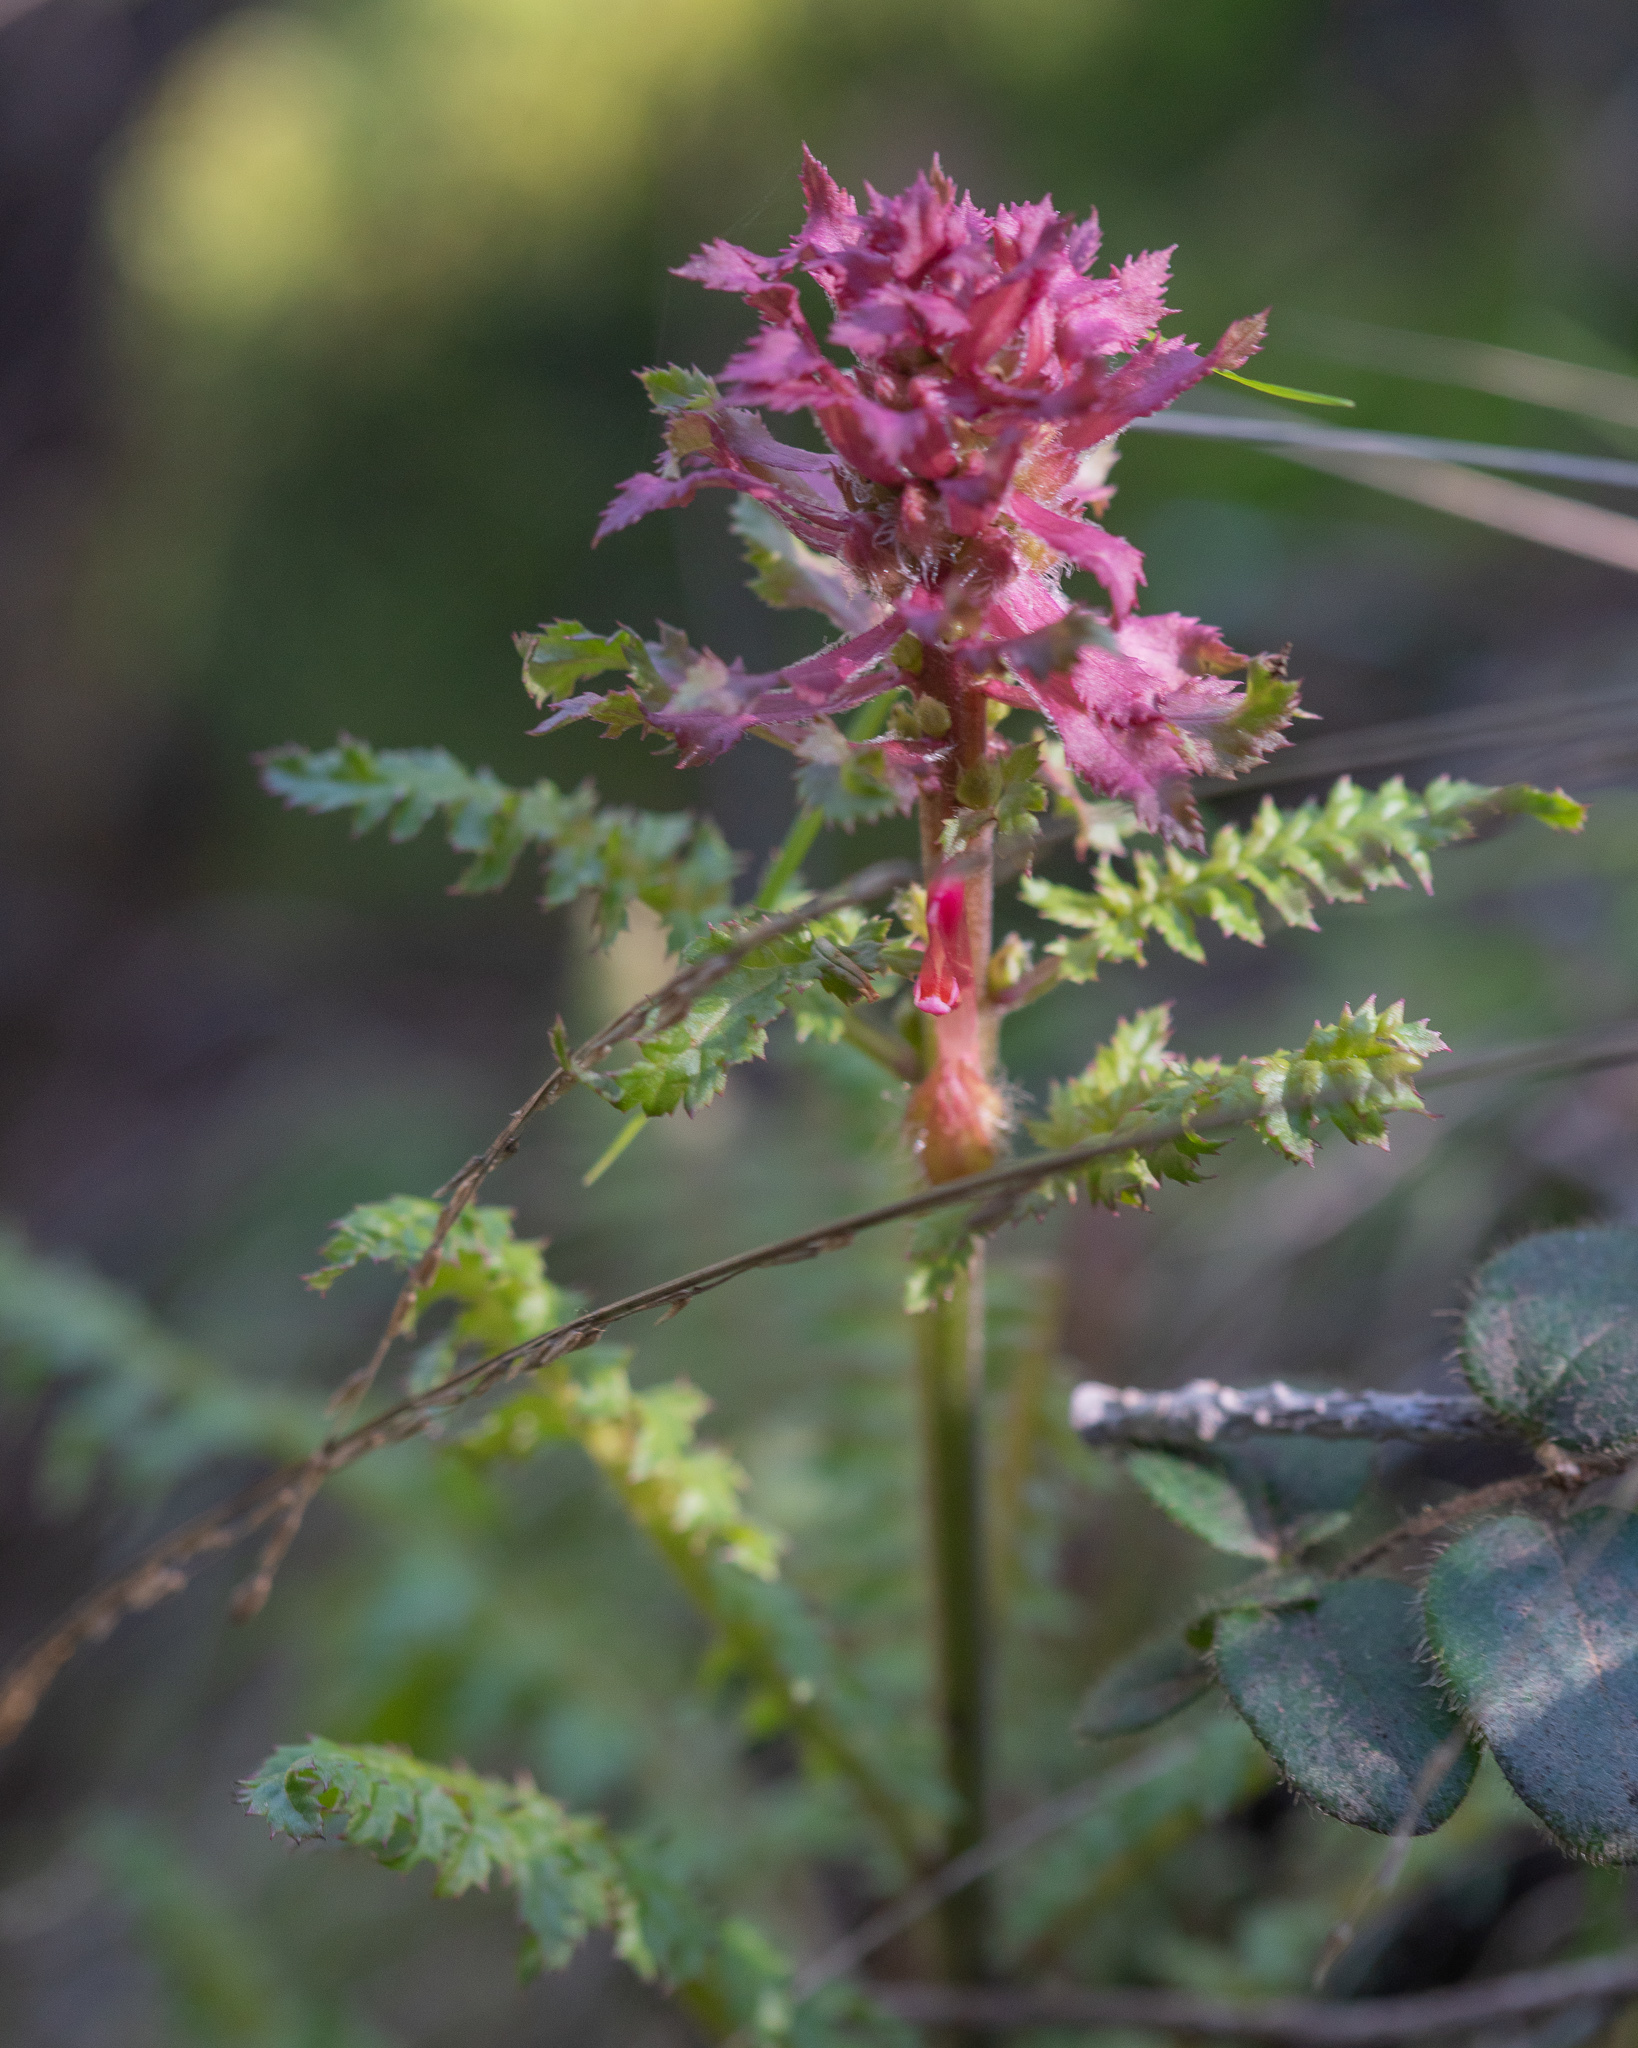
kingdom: Plantae
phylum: Tracheophyta
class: Magnoliopsida
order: Lamiales
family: Orobanchaceae
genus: Pedicularis
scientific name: Pedicularis densiflora
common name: Indian warrior
